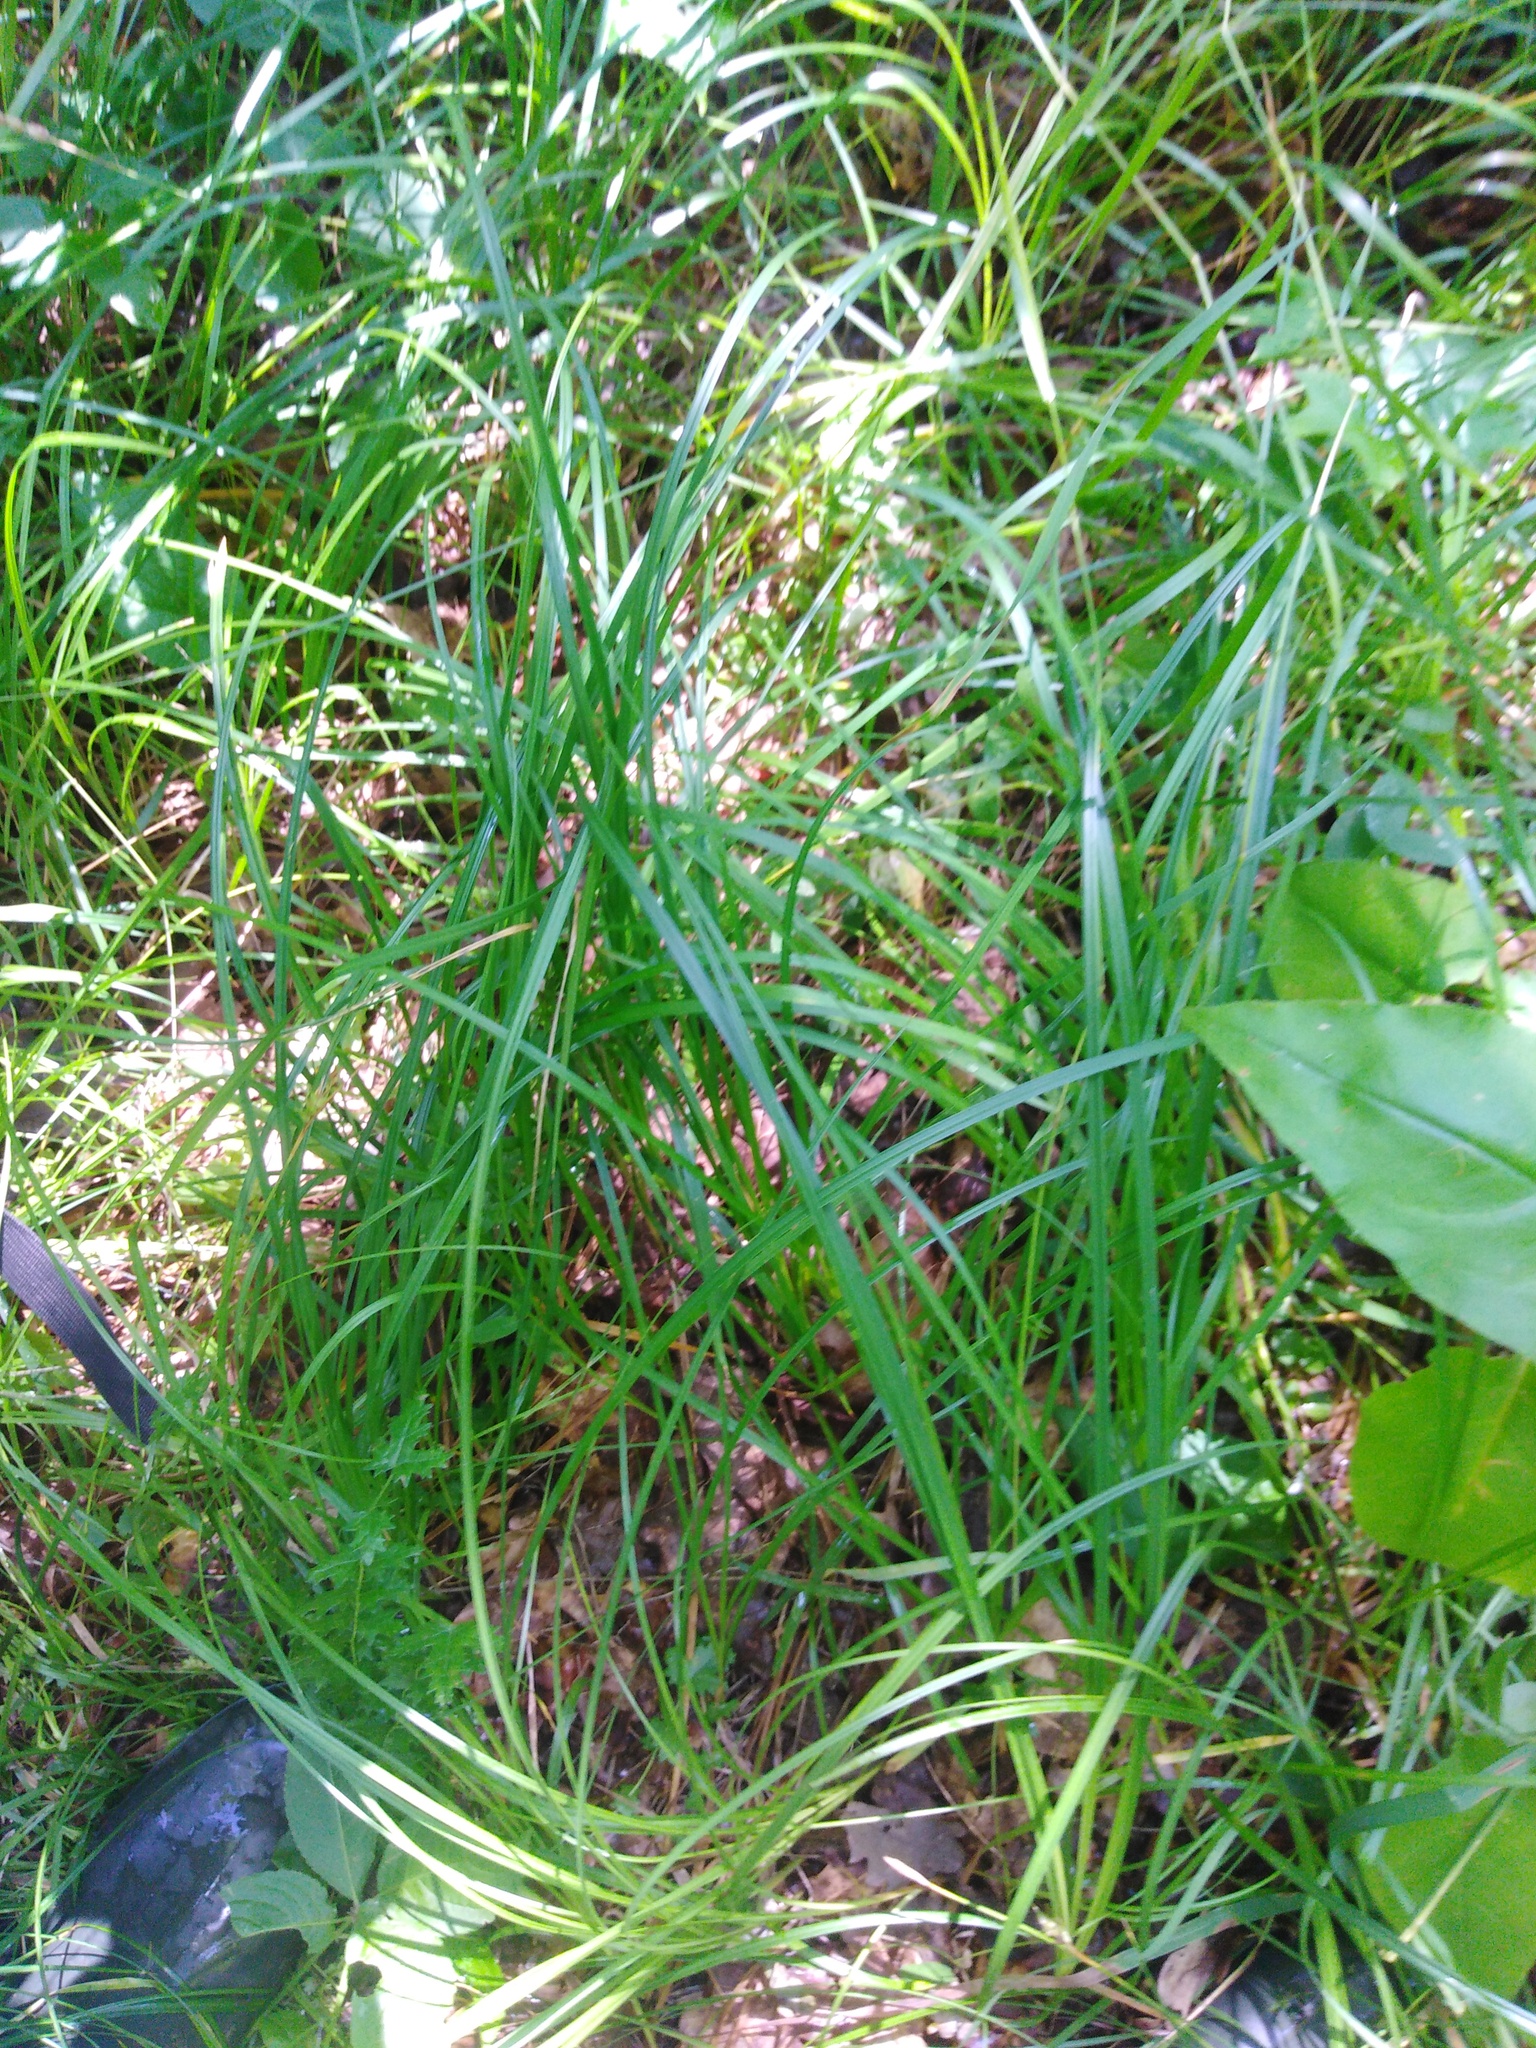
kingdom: Plantae
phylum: Tracheophyta
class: Liliopsida
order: Poales
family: Cyperaceae
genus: Carex
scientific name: Carex michelii
